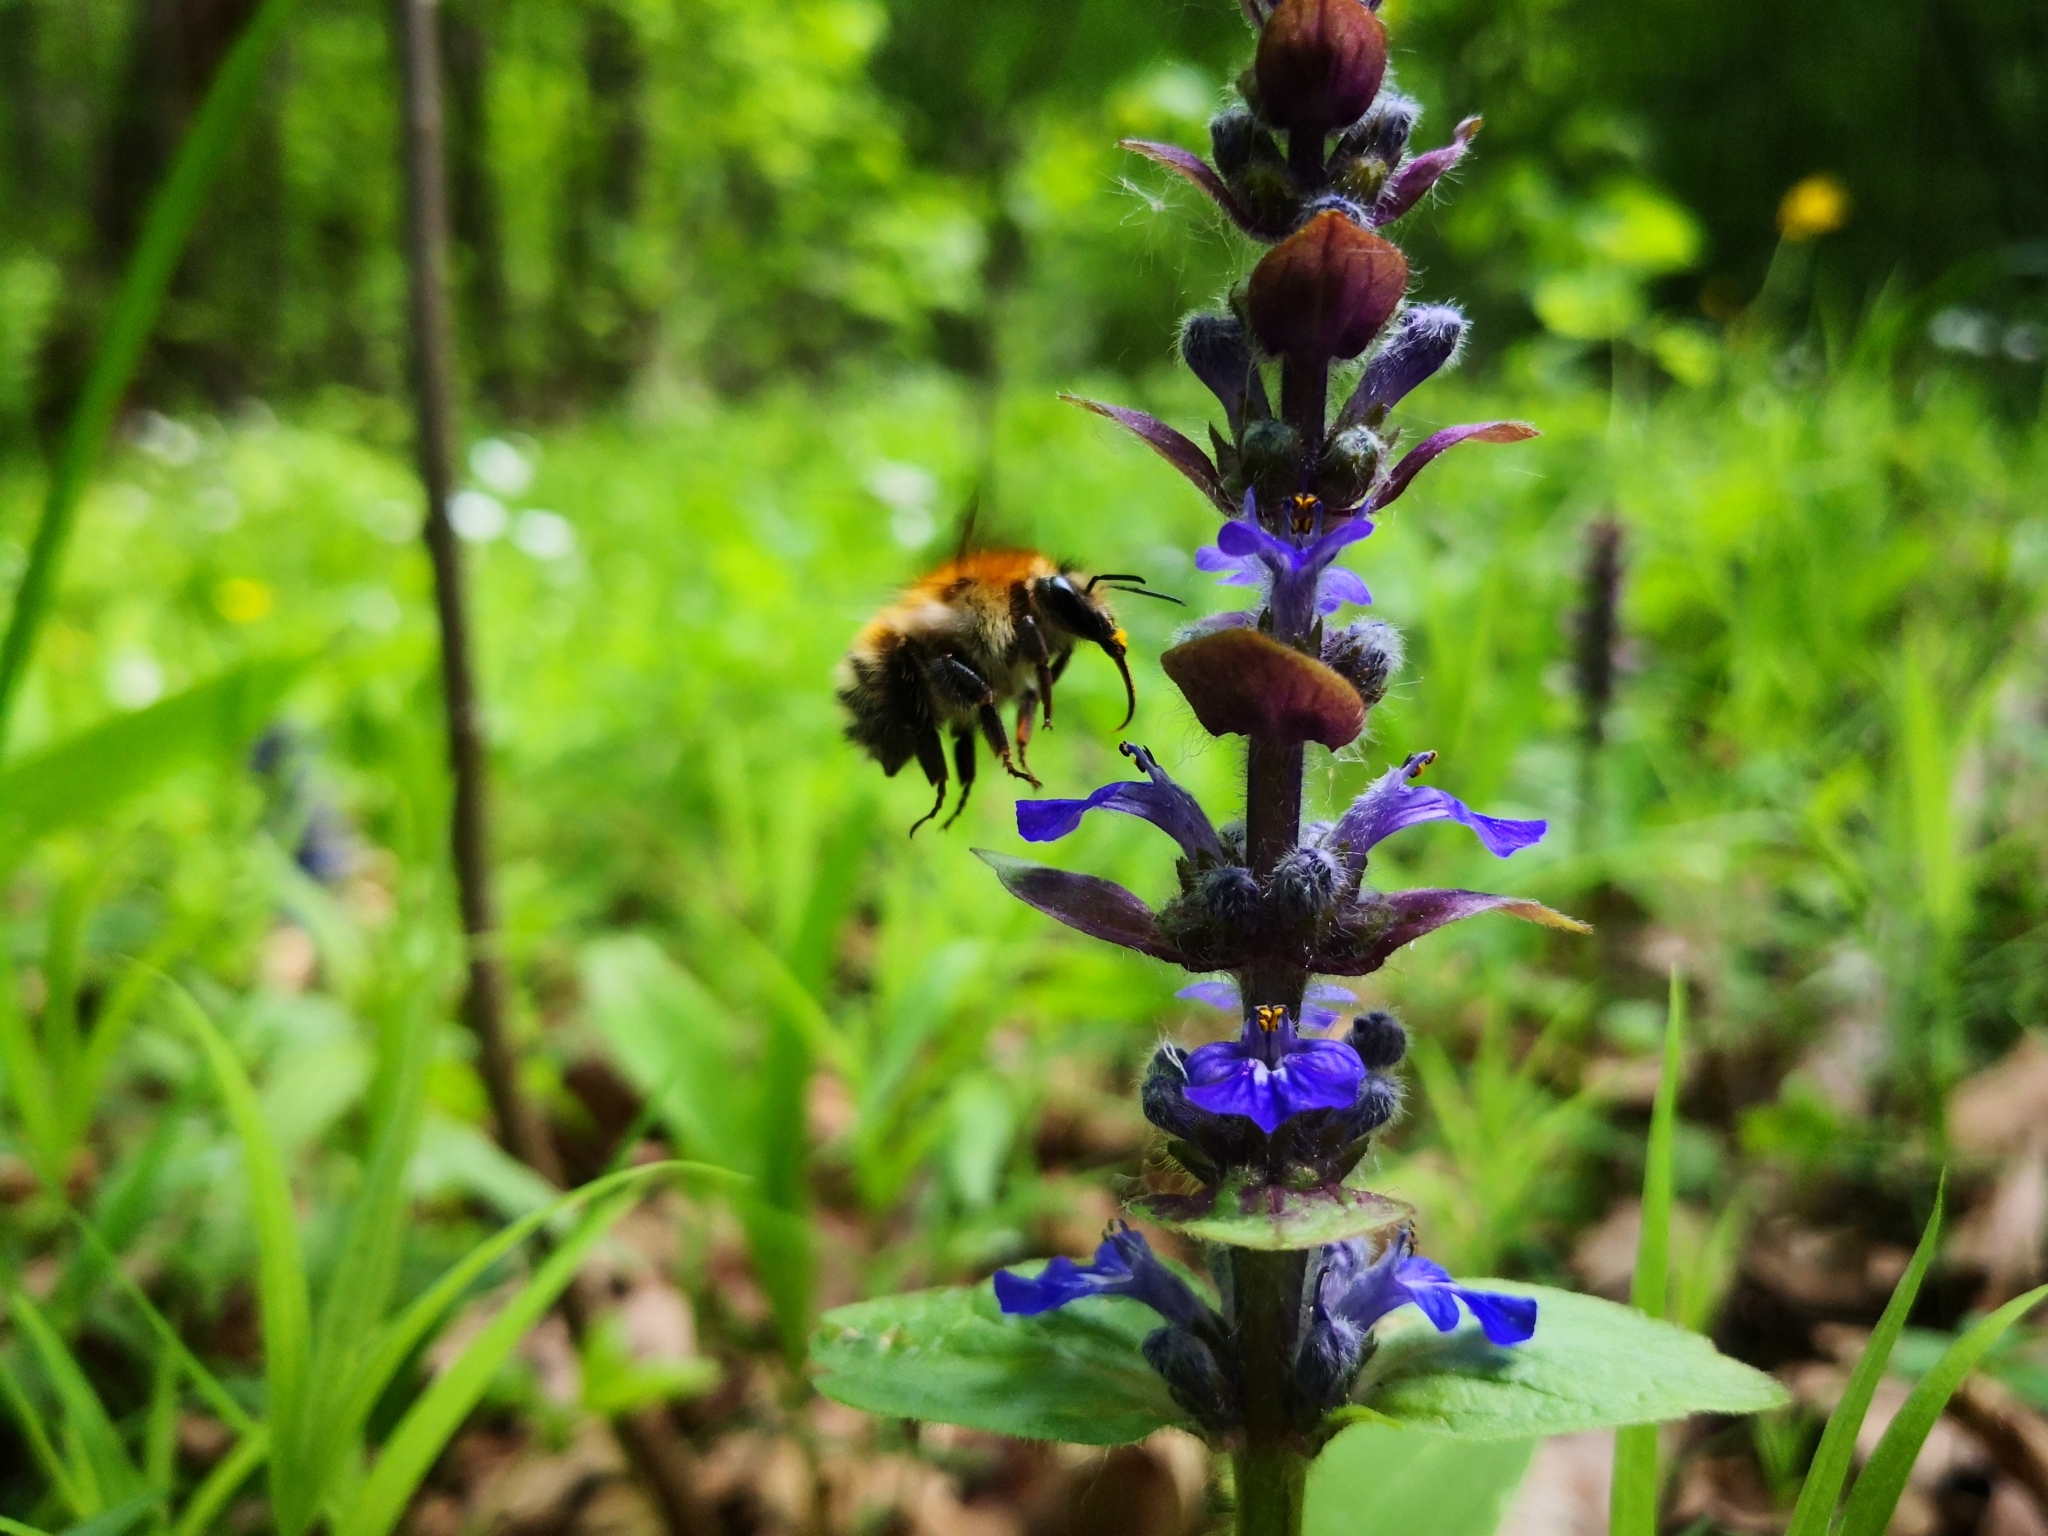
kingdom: Plantae
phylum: Tracheophyta
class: Magnoliopsida
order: Lamiales
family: Lamiaceae
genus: Ajuga
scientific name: Ajuga reptans
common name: Bugle
